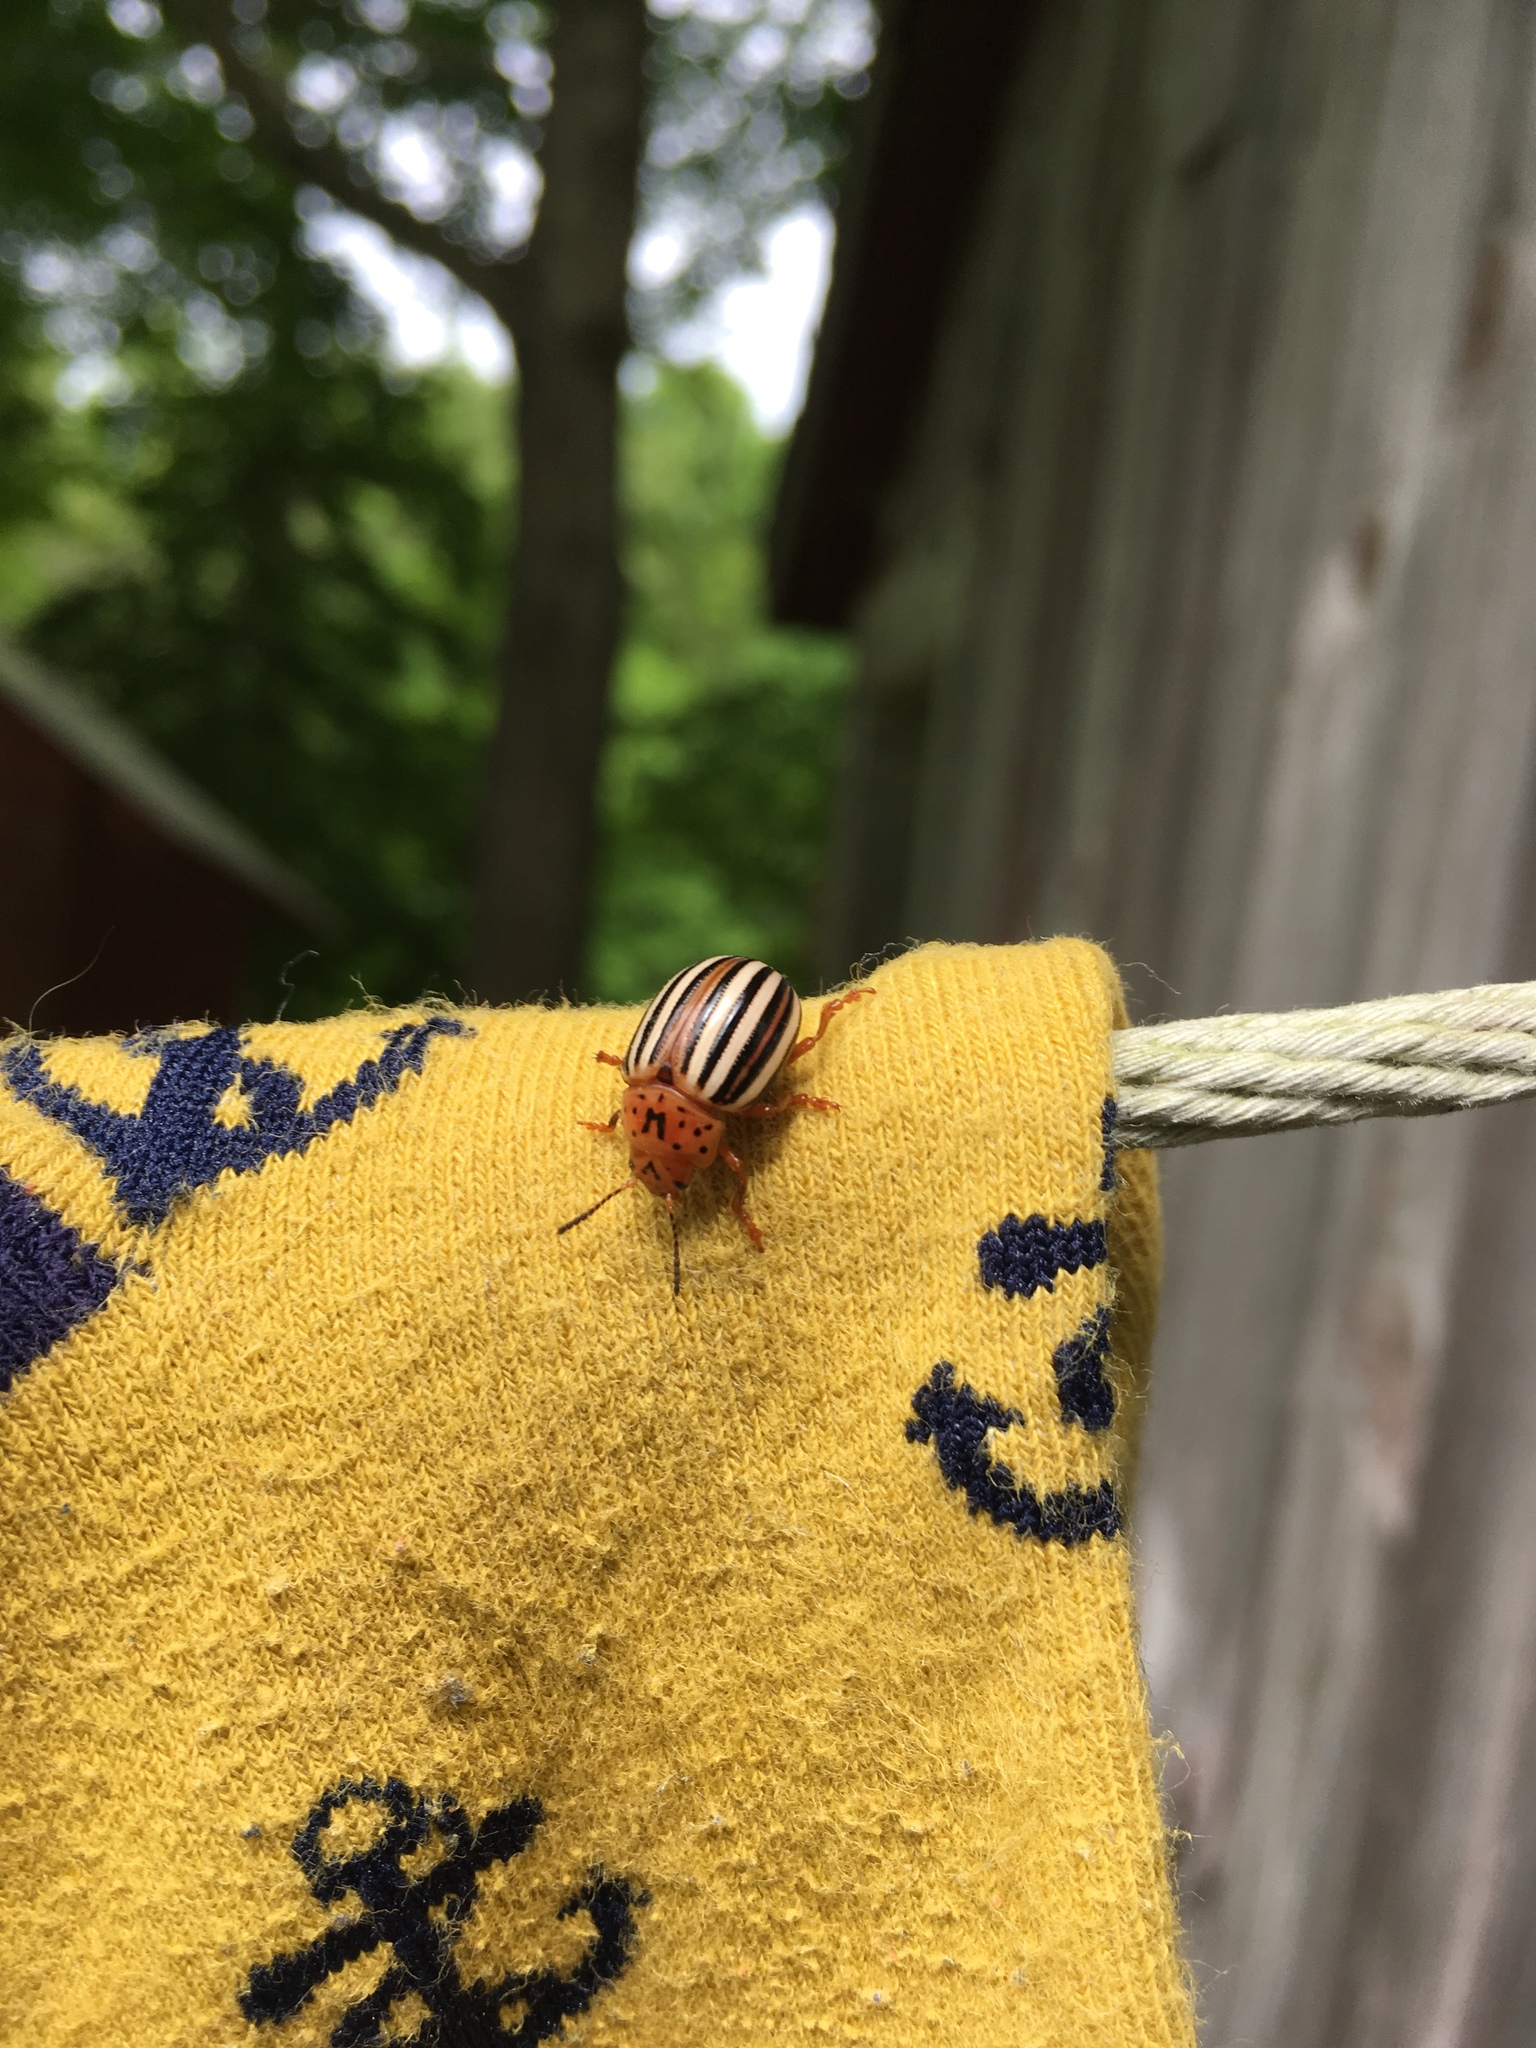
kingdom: Animalia
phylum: Arthropoda
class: Insecta
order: Coleoptera
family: Chrysomelidae
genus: Leptinotarsa
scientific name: Leptinotarsa juncta
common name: False potato beetle
